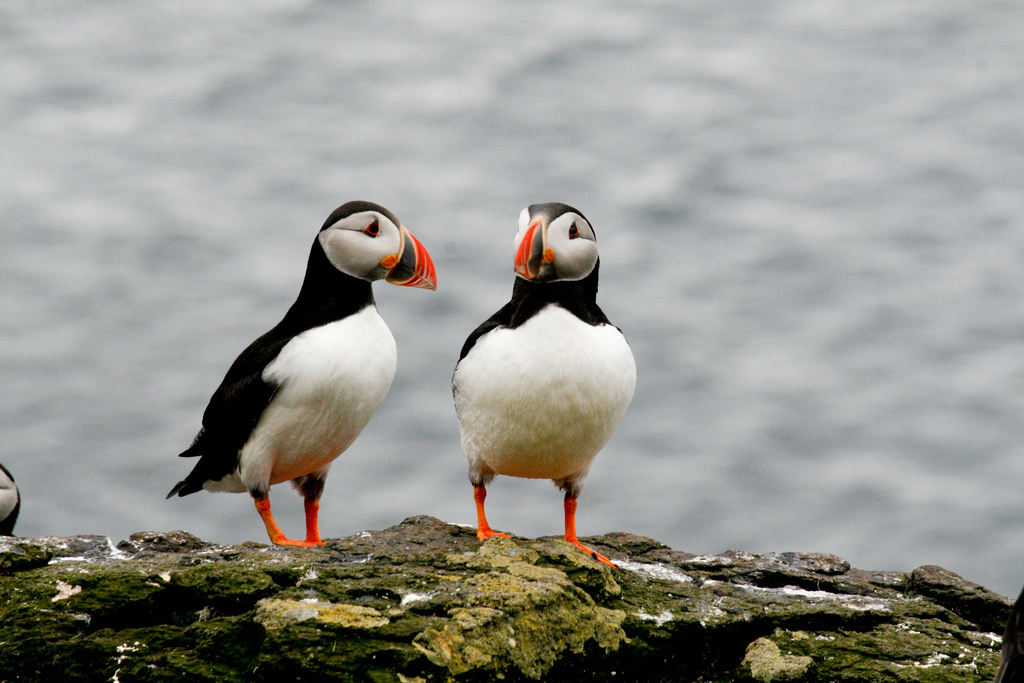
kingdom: Animalia
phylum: Chordata
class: Aves
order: Charadriiformes
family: Alcidae
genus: Fratercula
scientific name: Fratercula arctica
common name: Atlantic puffin
